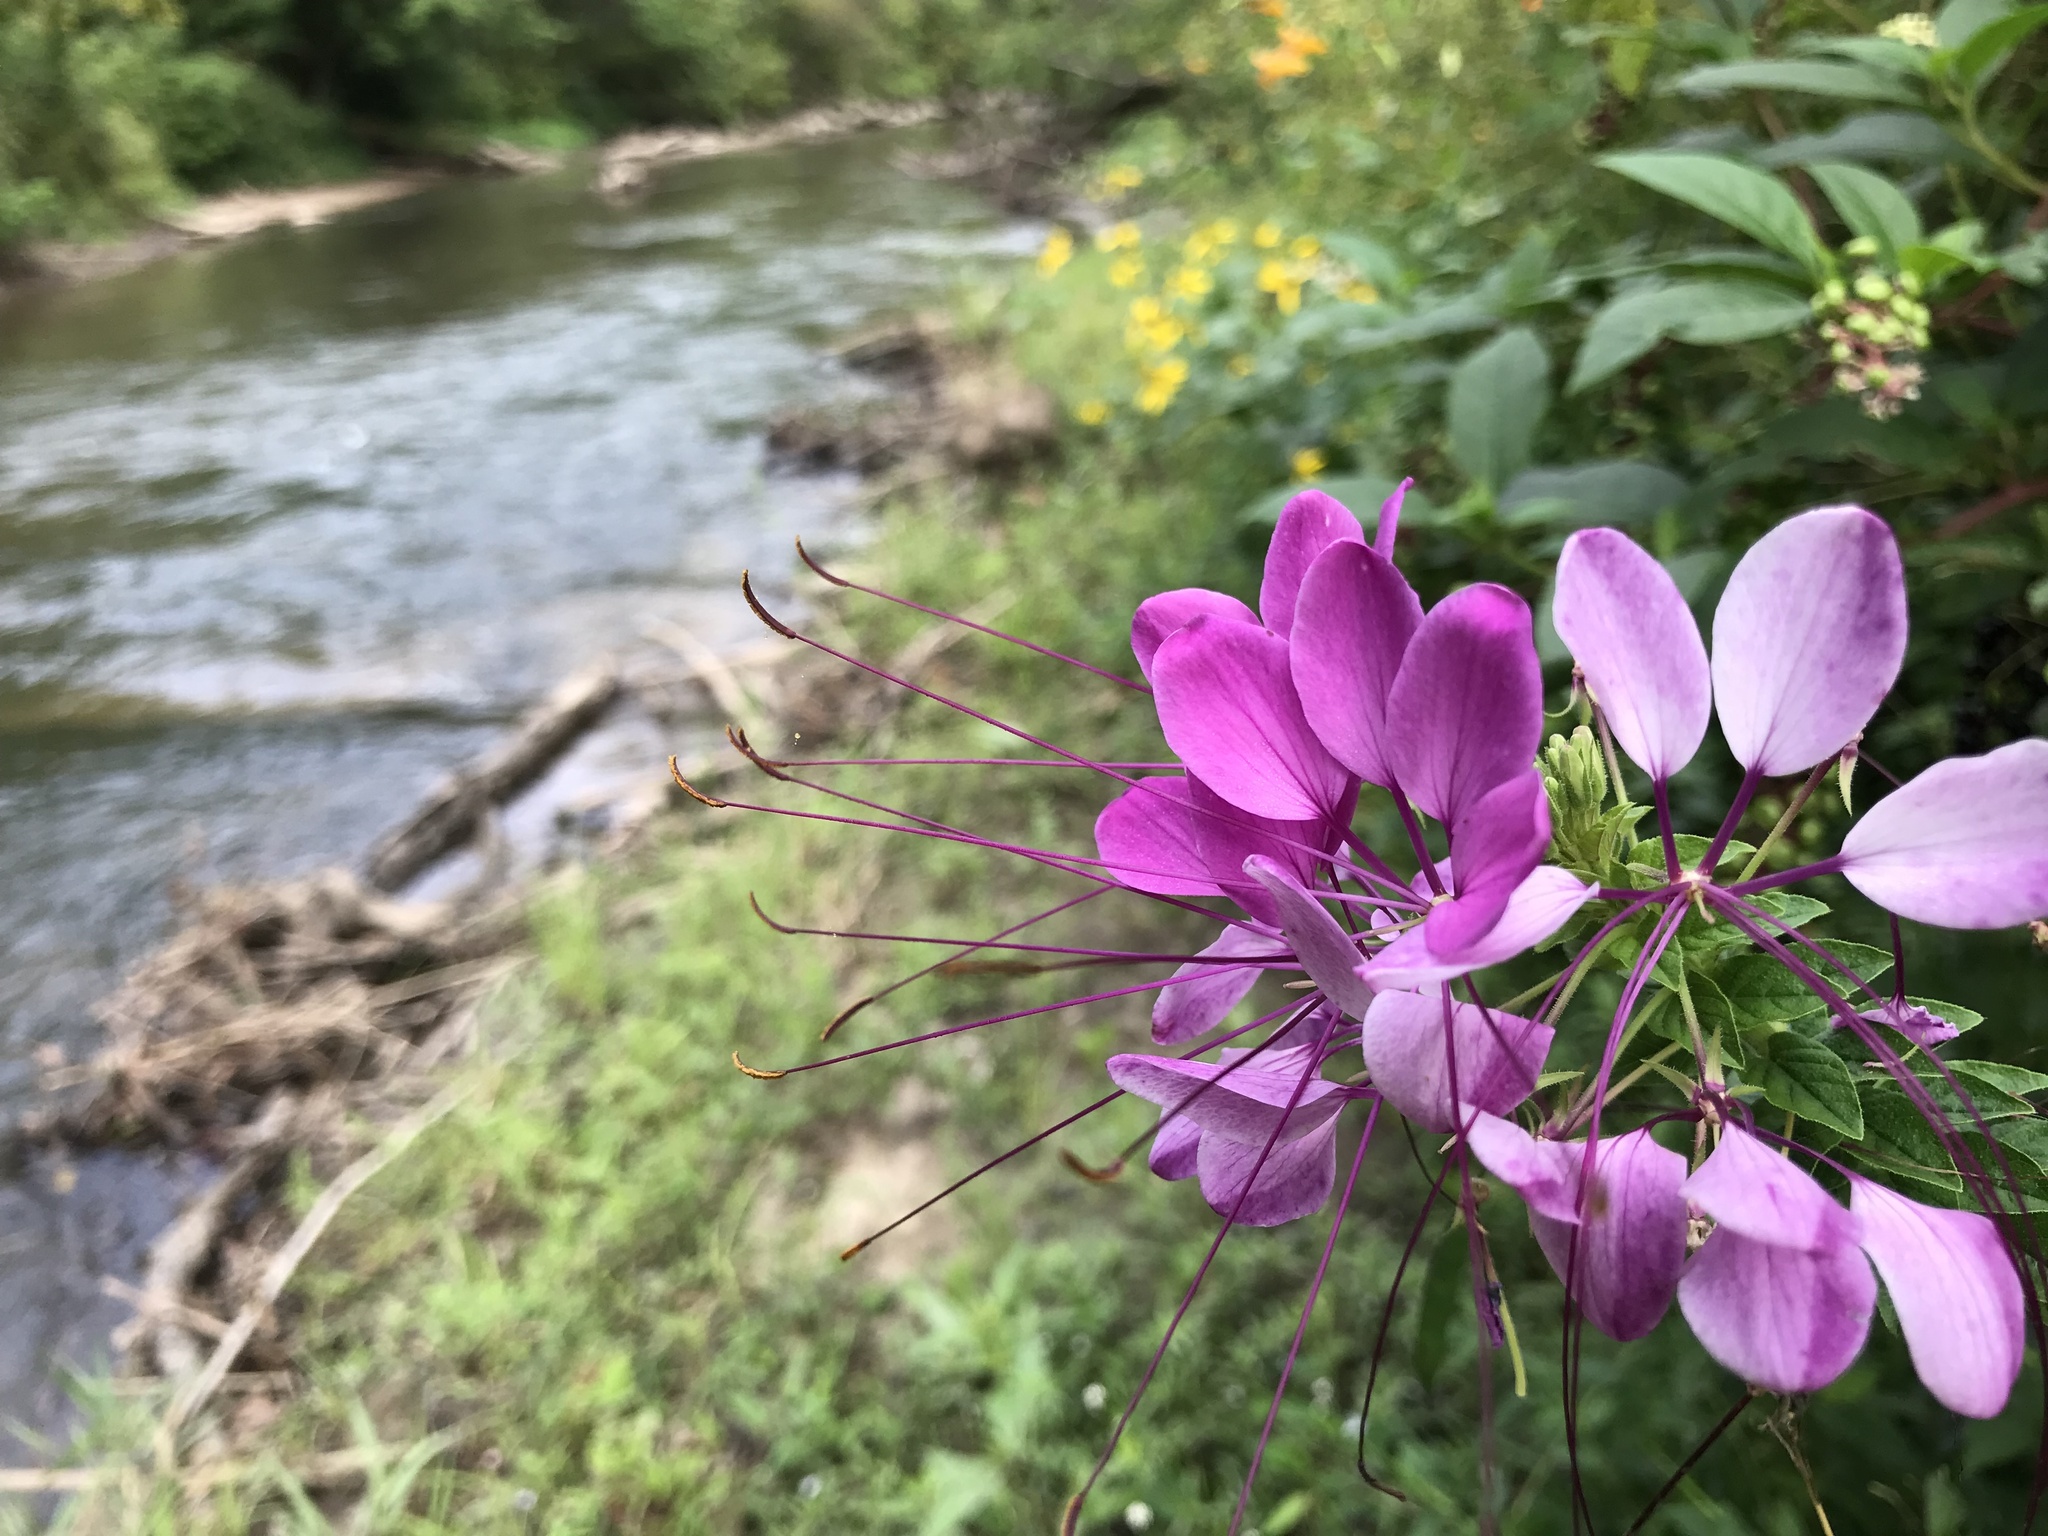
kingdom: Plantae
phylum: Tracheophyta
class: Magnoliopsida
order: Brassicales
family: Cleomaceae
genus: Tarenaya
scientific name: Tarenaya houtteana
